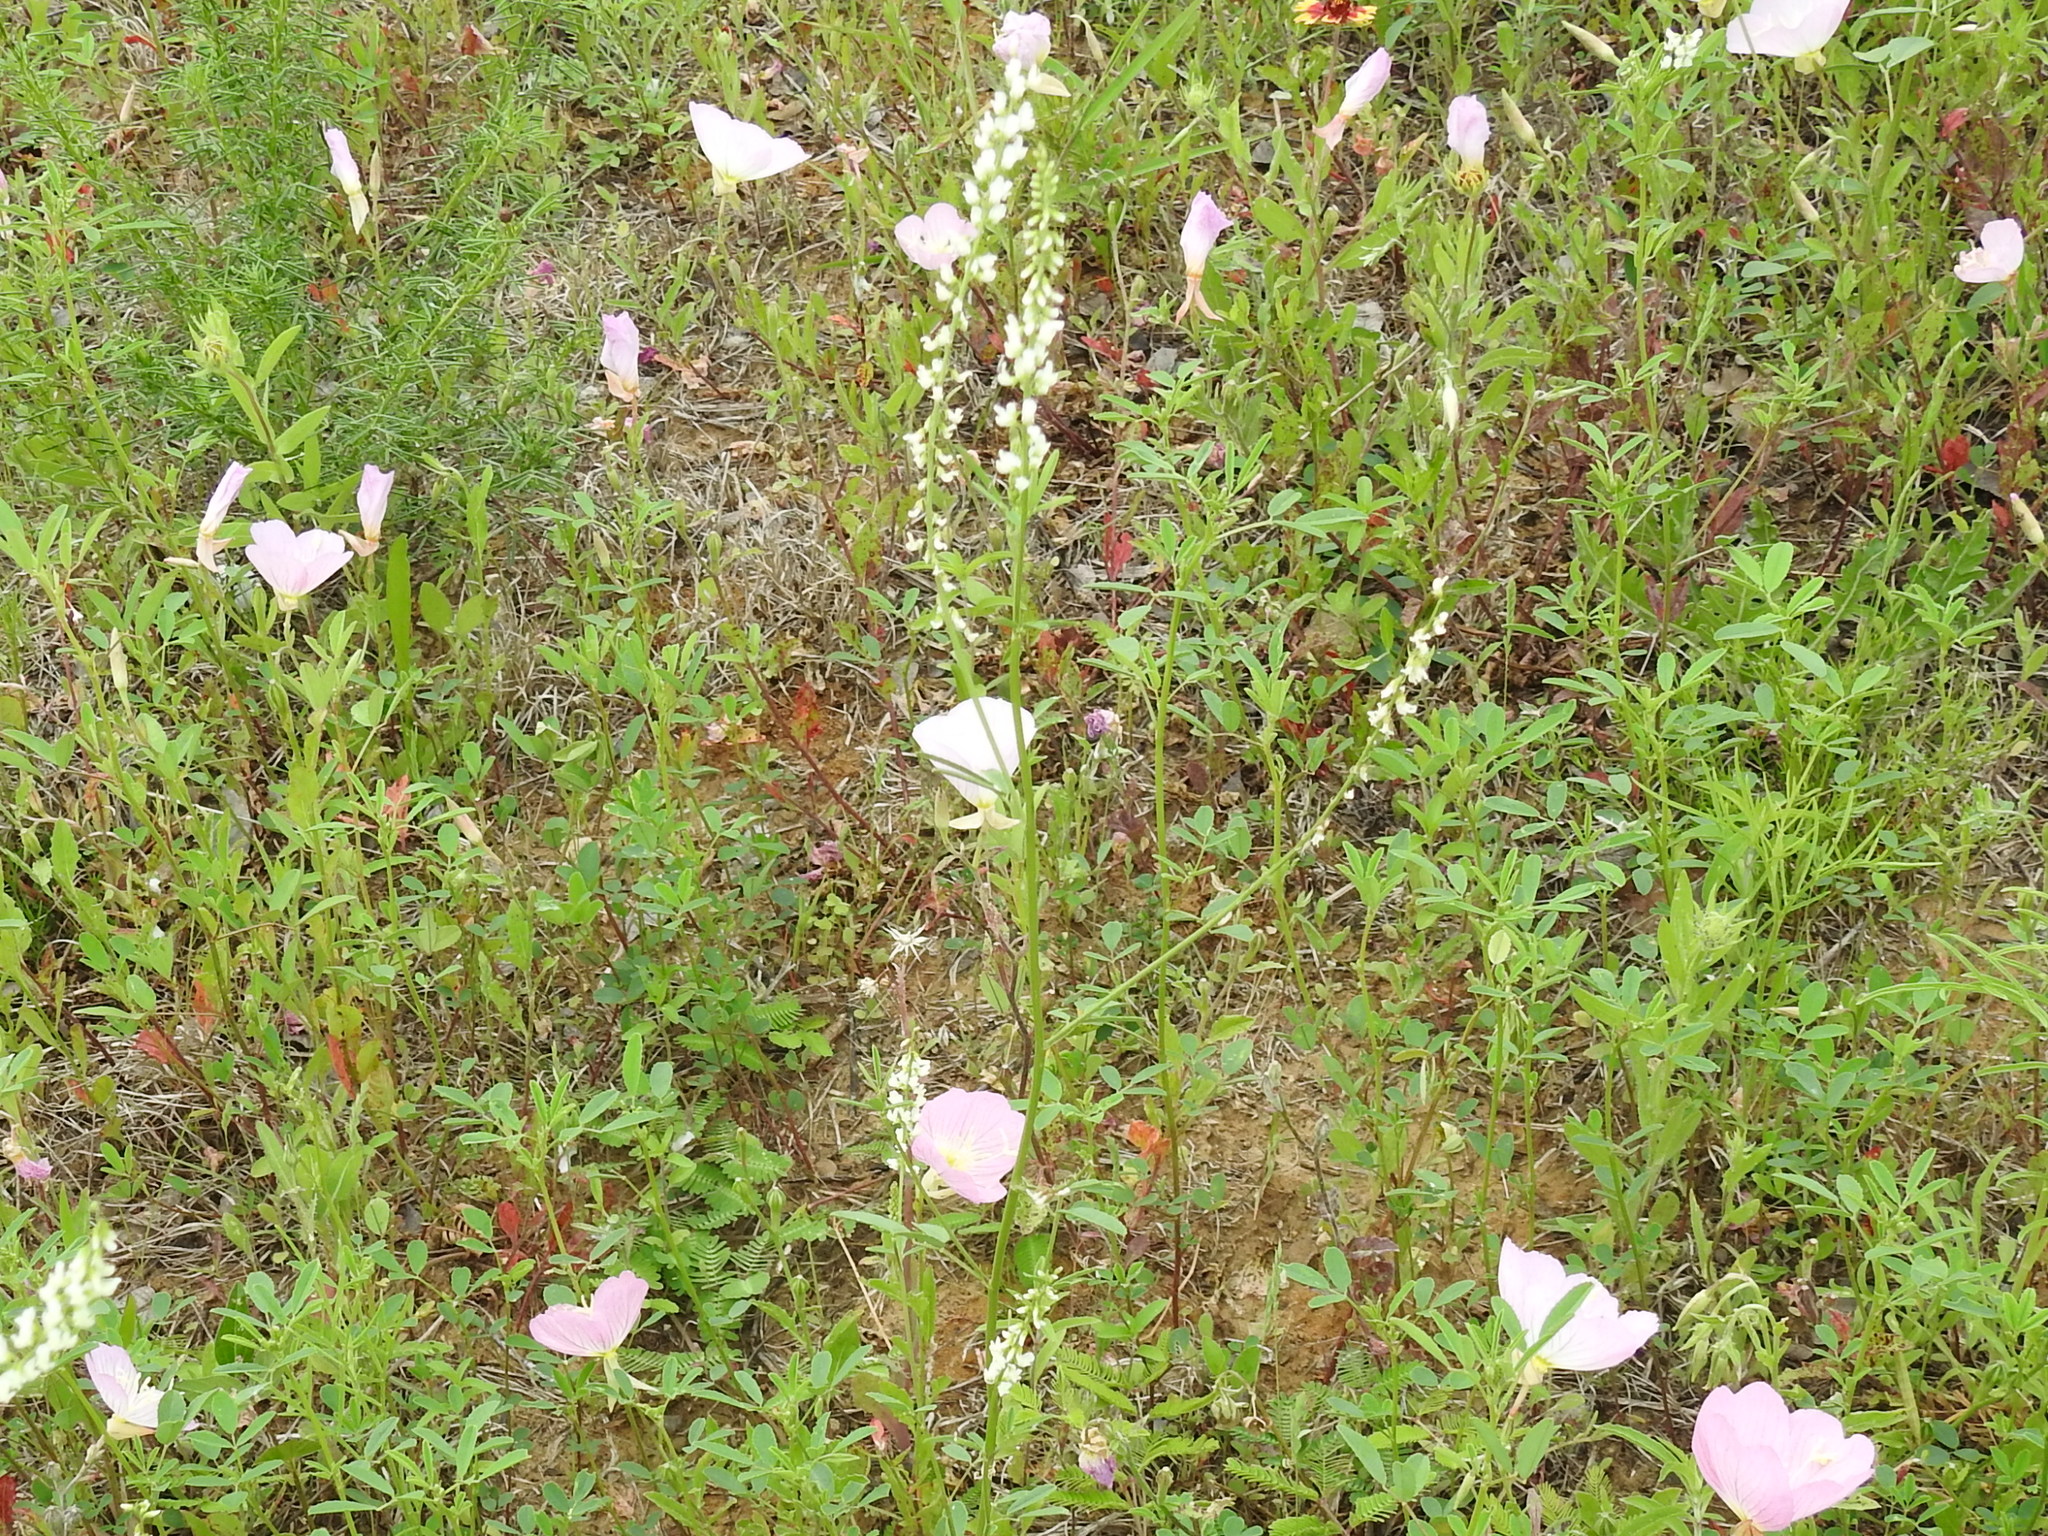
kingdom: Plantae
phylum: Tracheophyta
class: Magnoliopsida
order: Fabales
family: Fabaceae
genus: Melilotus
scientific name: Melilotus albus
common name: White melilot
